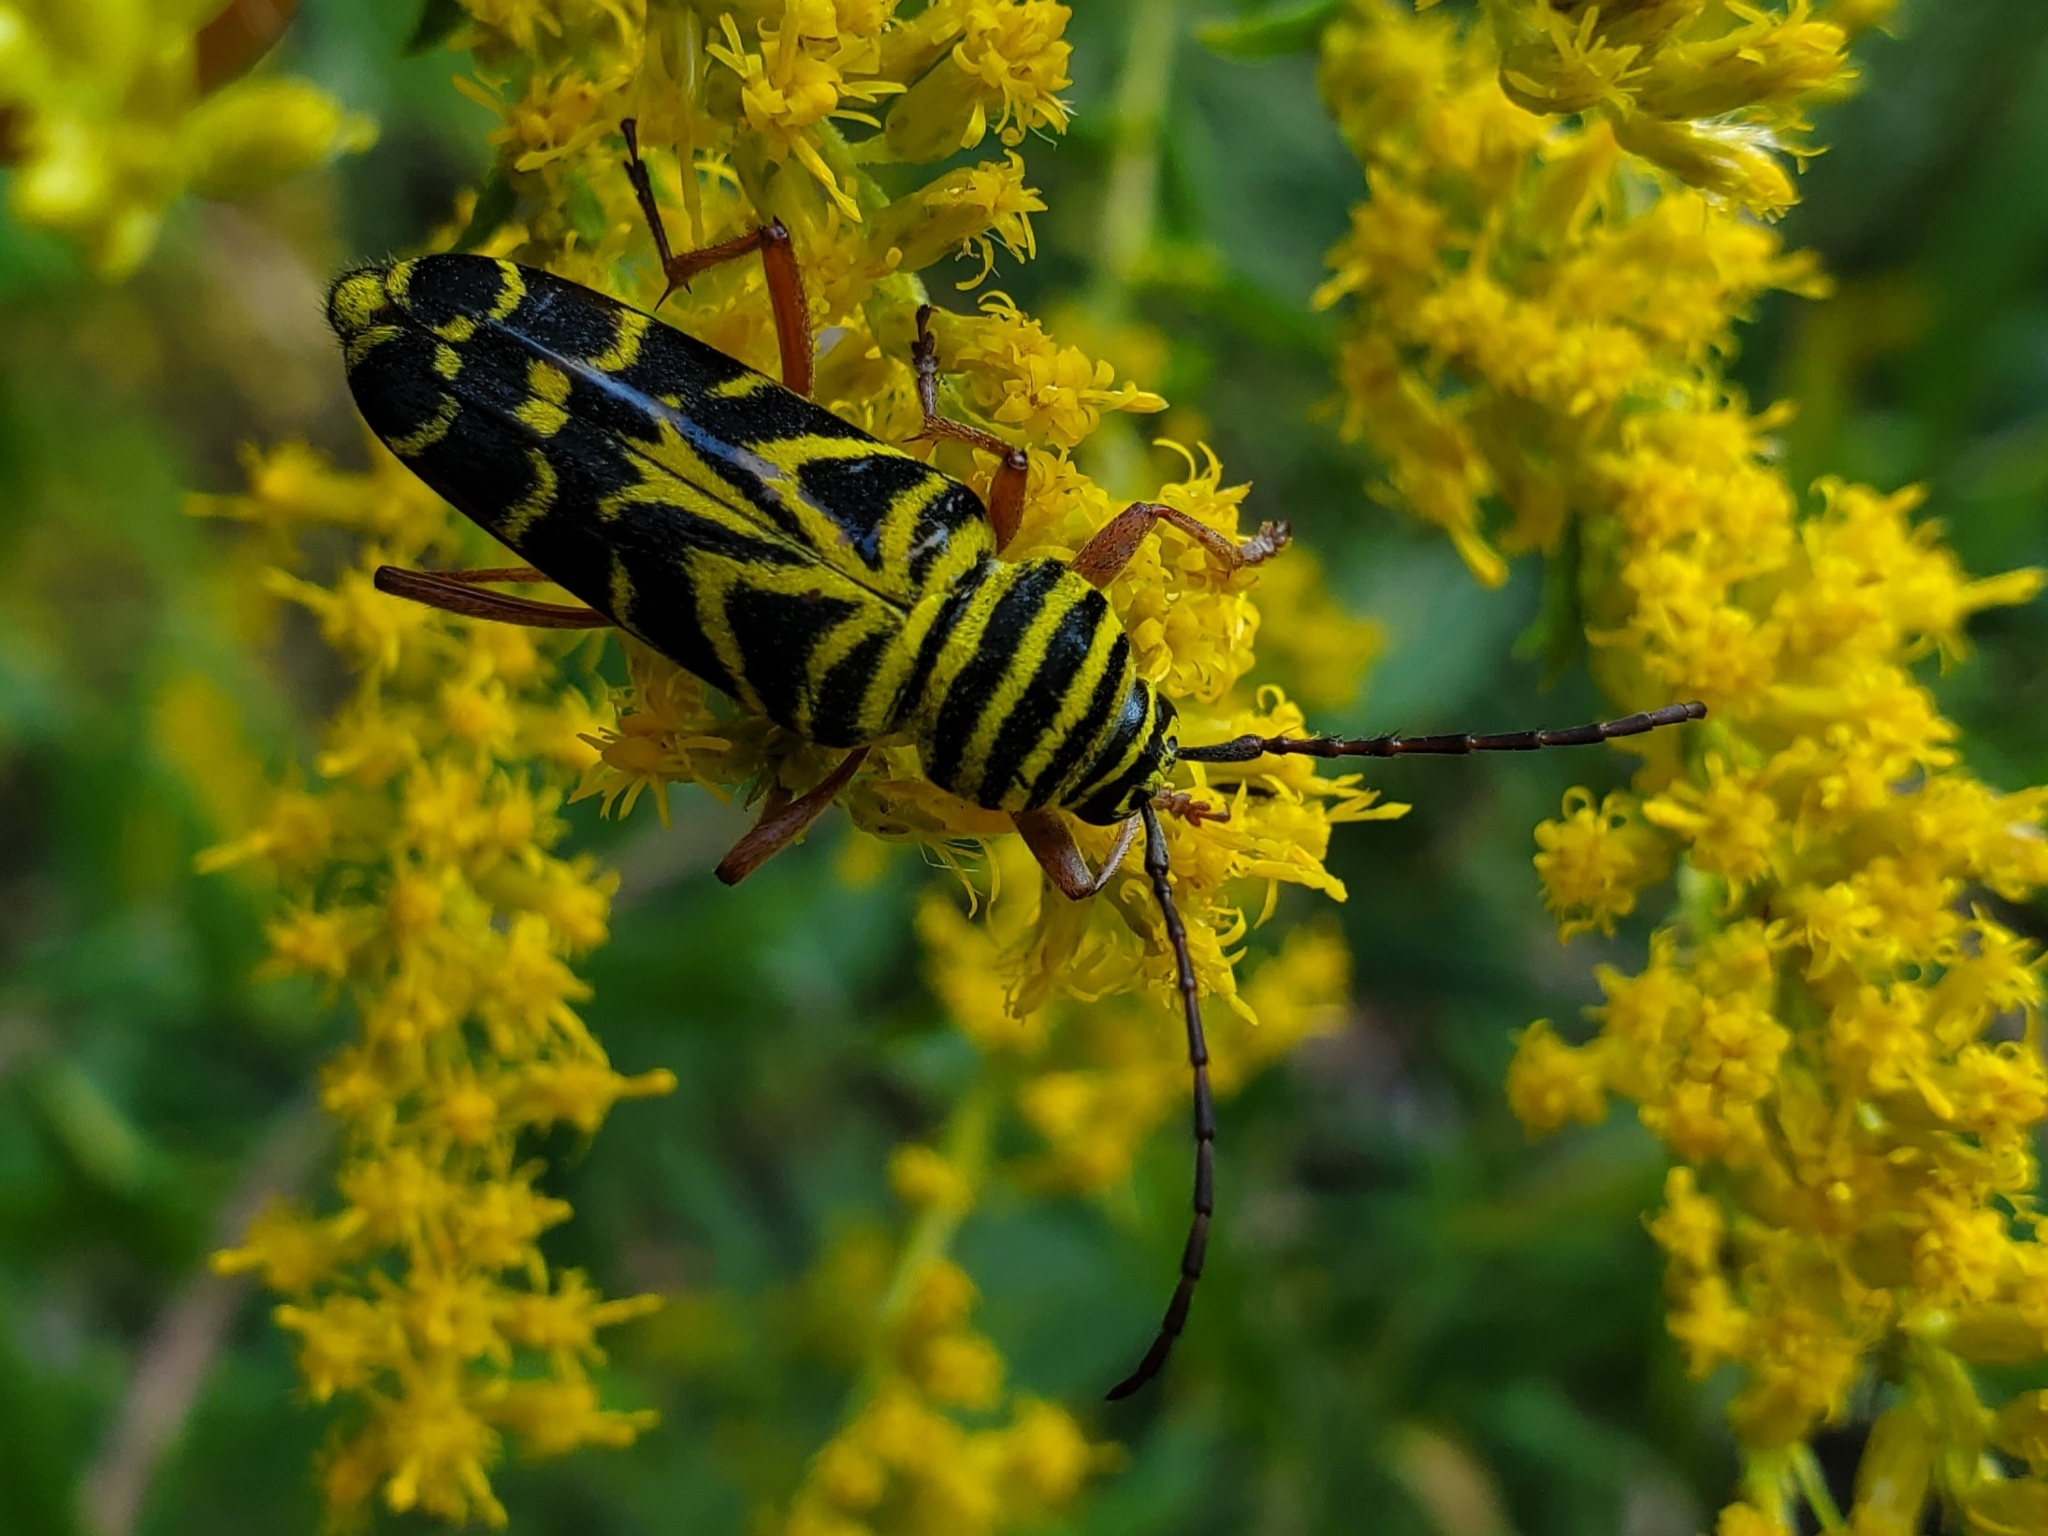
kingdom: Animalia
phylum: Arthropoda
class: Insecta
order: Coleoptera
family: Cerambycidae
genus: Megacyllene
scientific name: Megacyllene robiniae
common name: Locust borer
